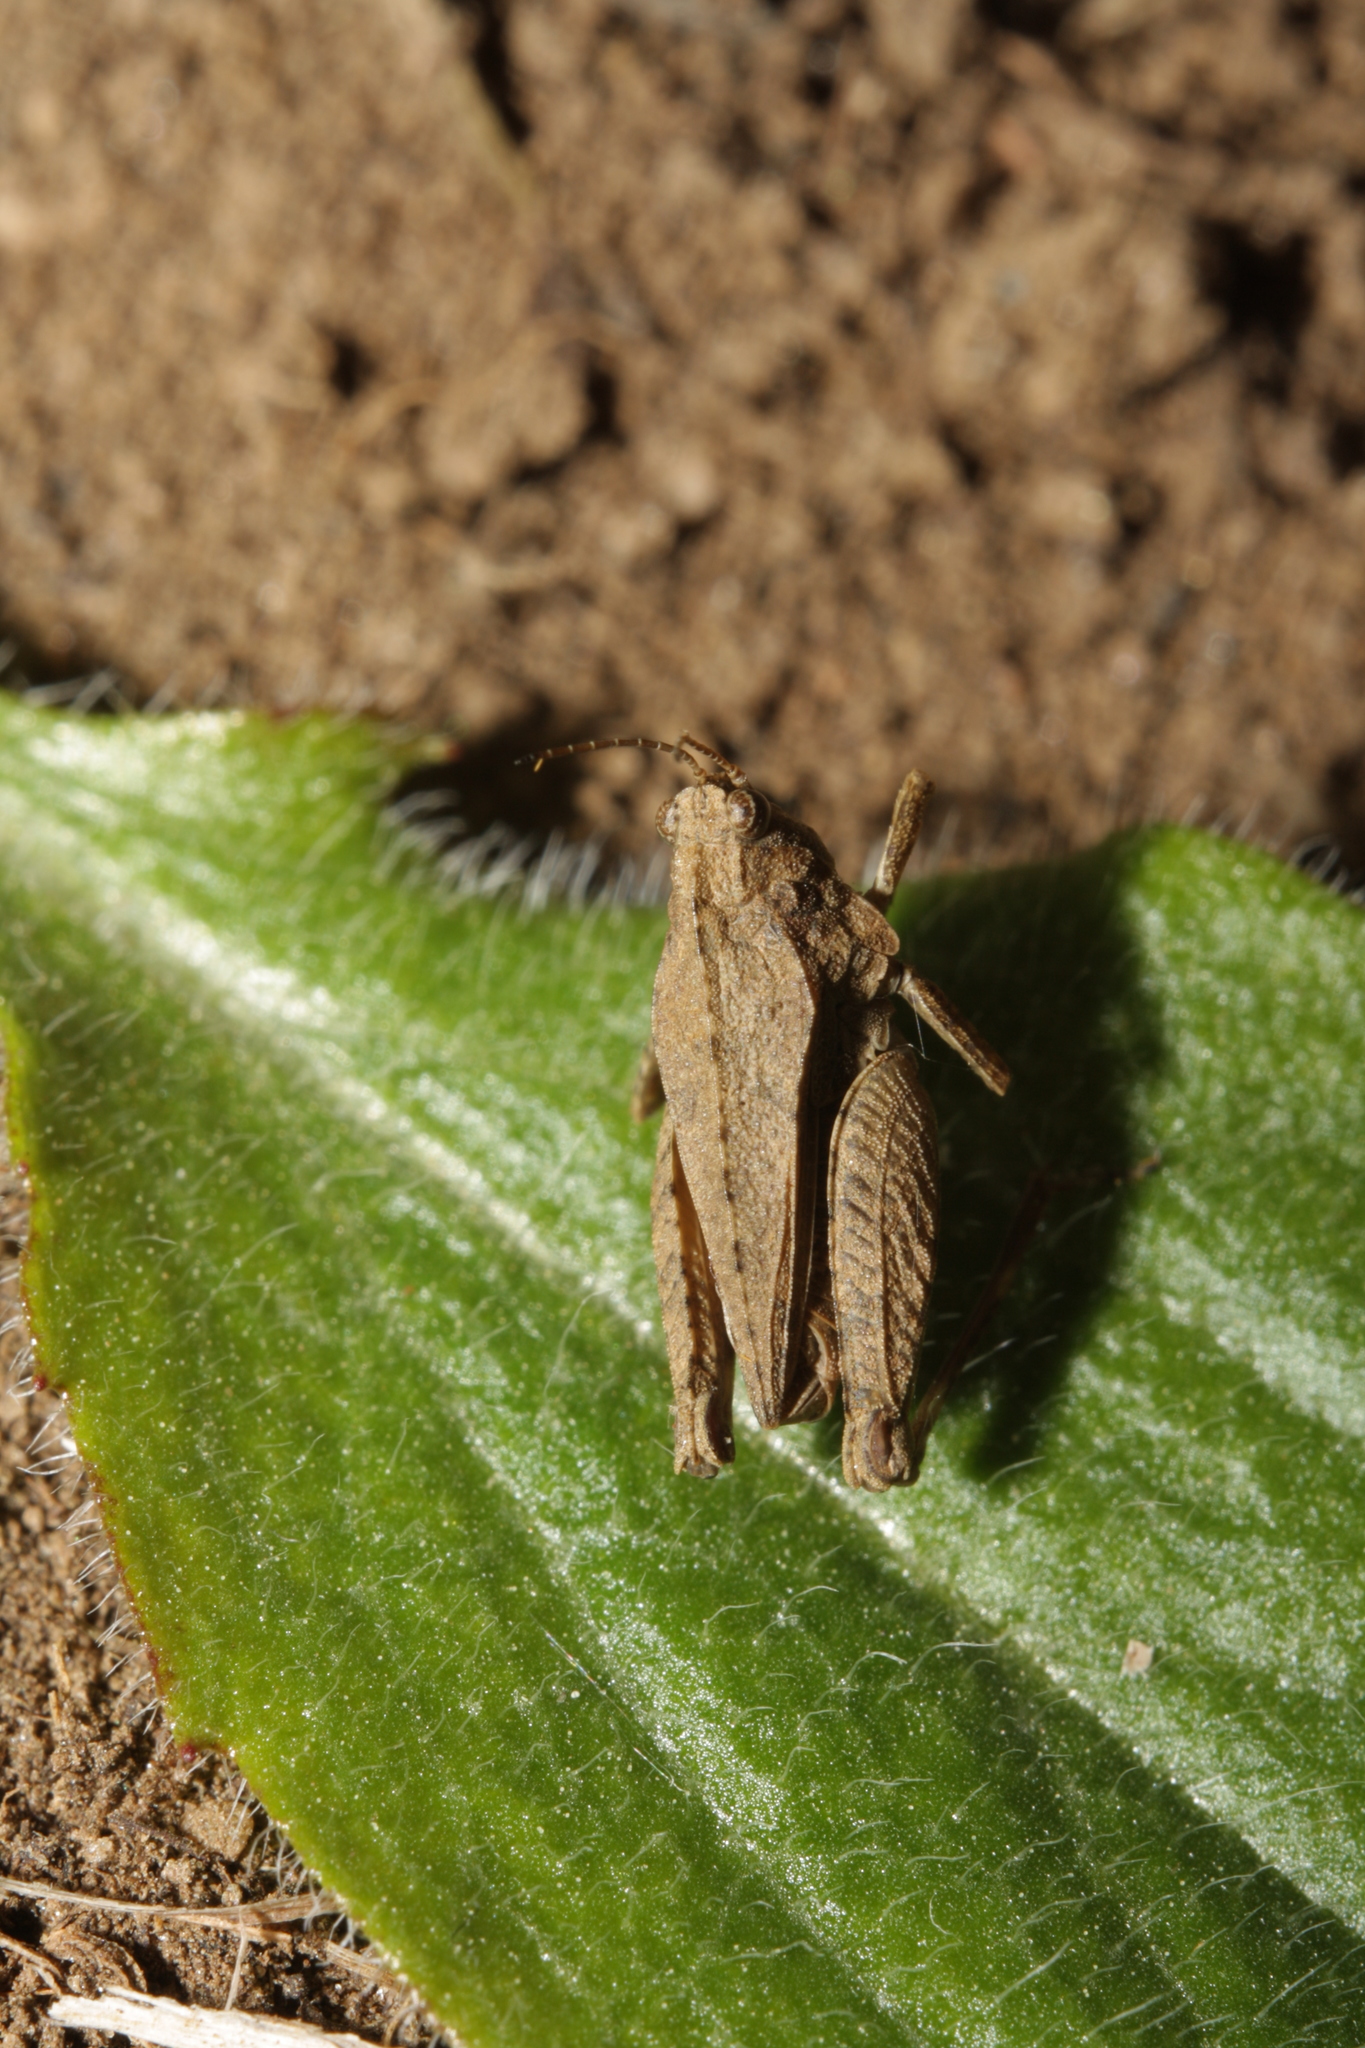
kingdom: Animalia
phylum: Arthropoda
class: Insecta
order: Orthoptera
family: Tetrigidae
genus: Tetrix
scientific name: Tetrix tenuicornis
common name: Long-horned groundhopper
